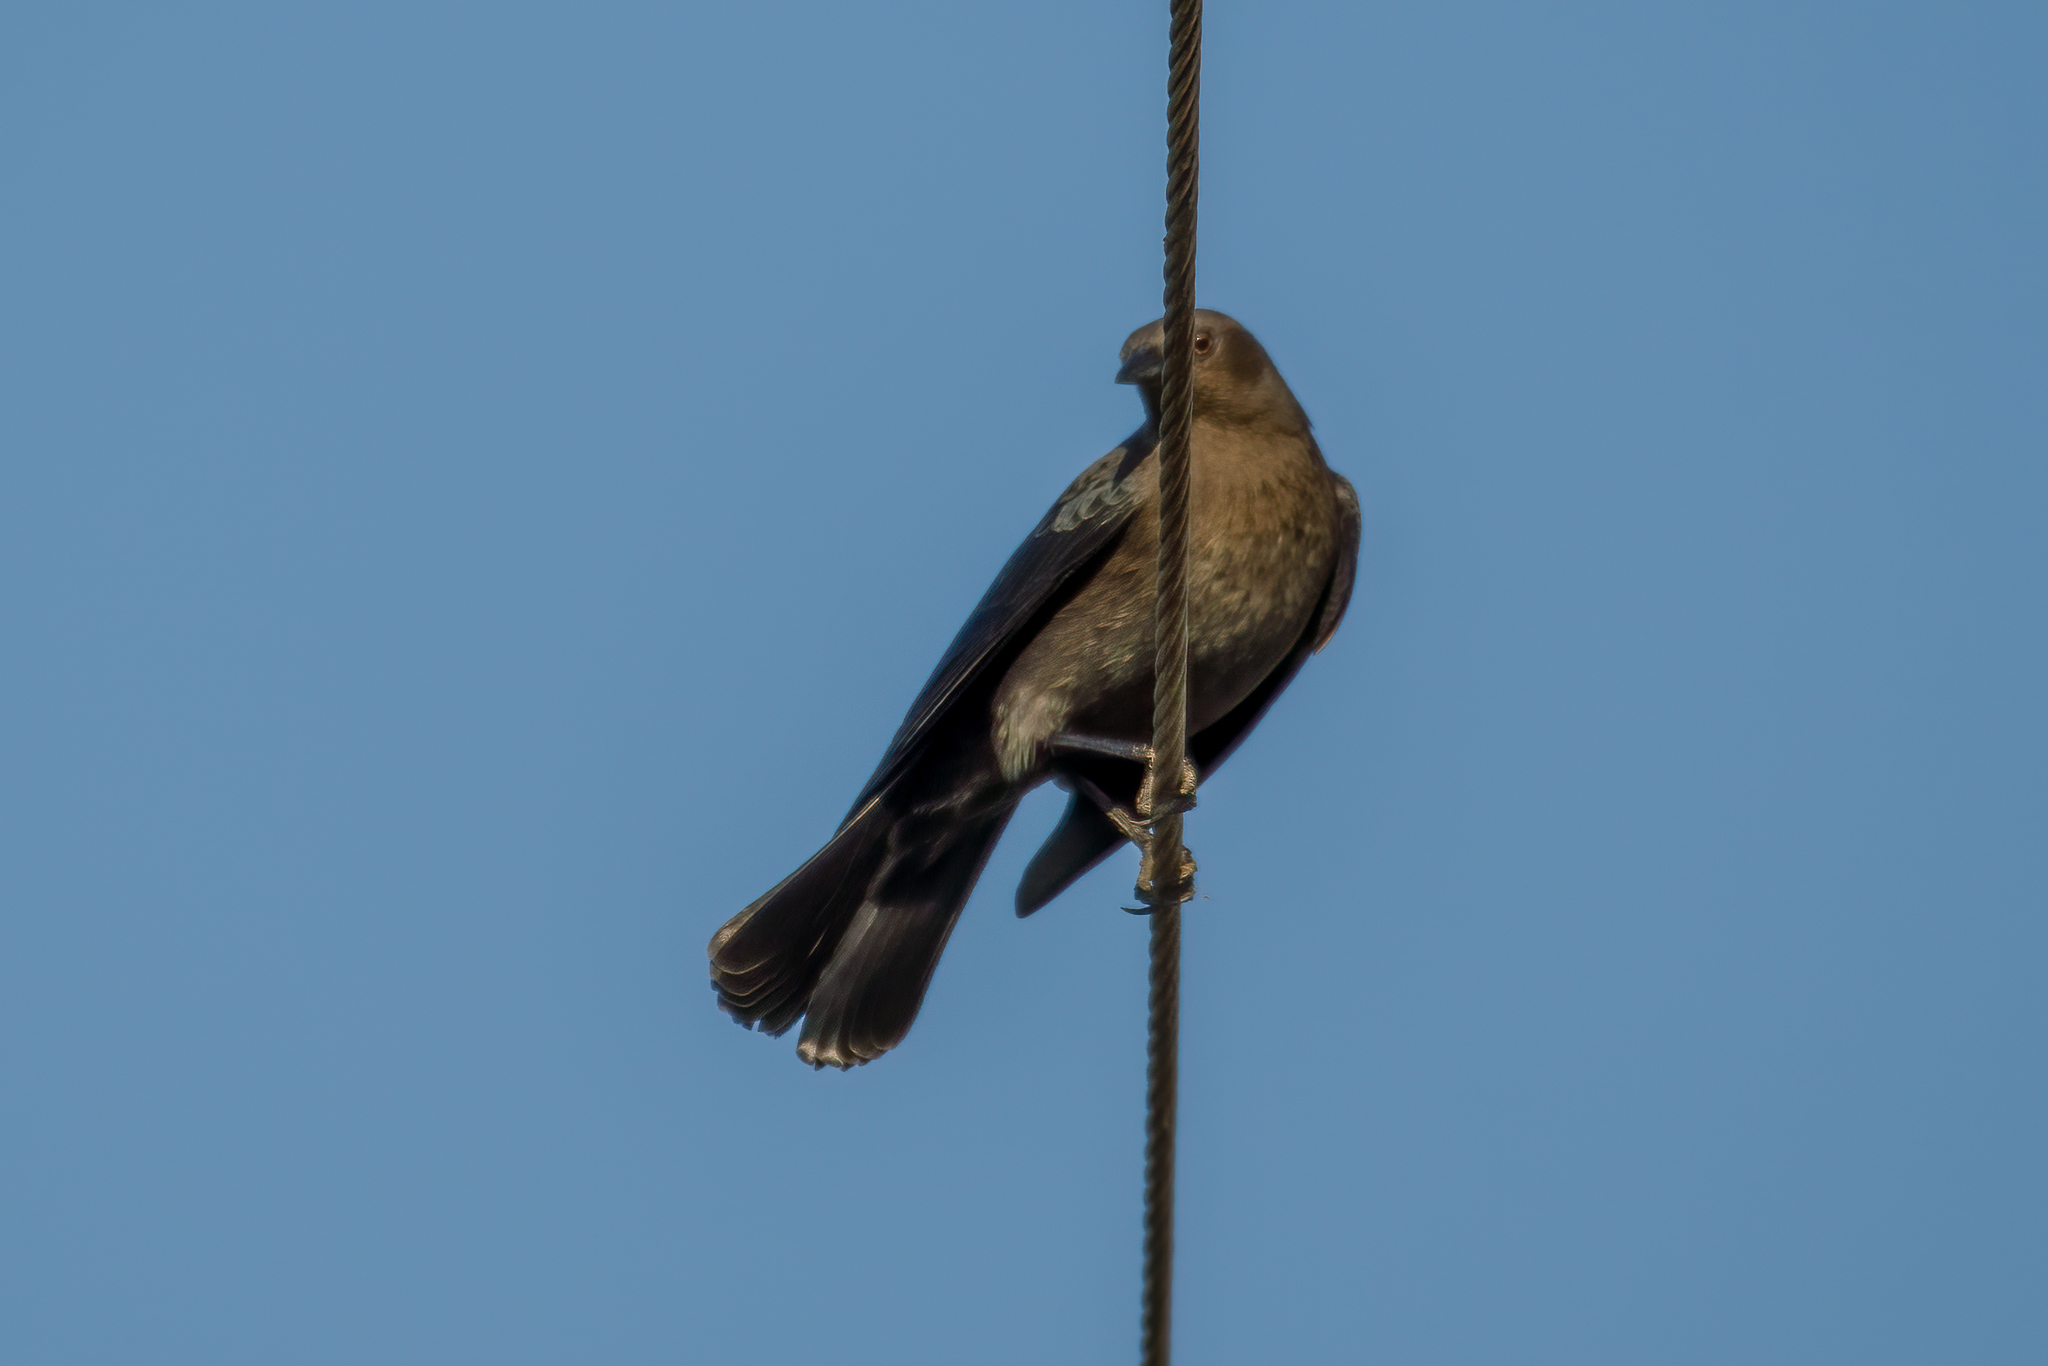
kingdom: Animalia
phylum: Chordata
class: Aves
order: Passeriformes
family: Icteridae
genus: Euphagus
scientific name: Euphagus cyanocephalus
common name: Brewer's blackbird
